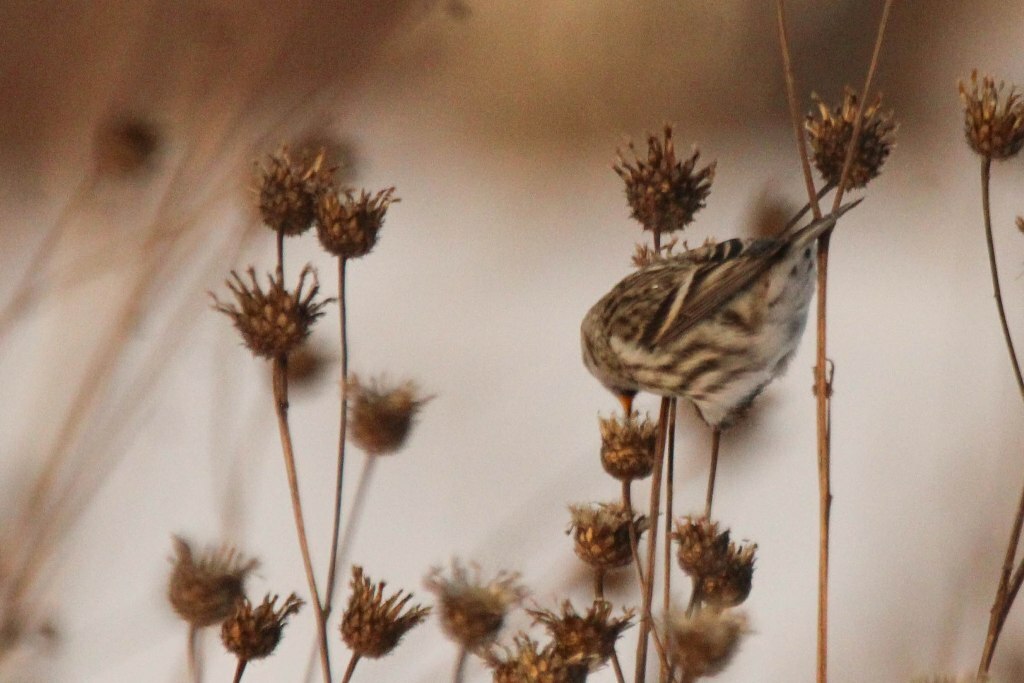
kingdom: Animalia
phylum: Chordata
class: Aves
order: Passeriformes
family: Fringillidae
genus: Acanthis
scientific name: Acanthis flammea
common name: Common redpoll
